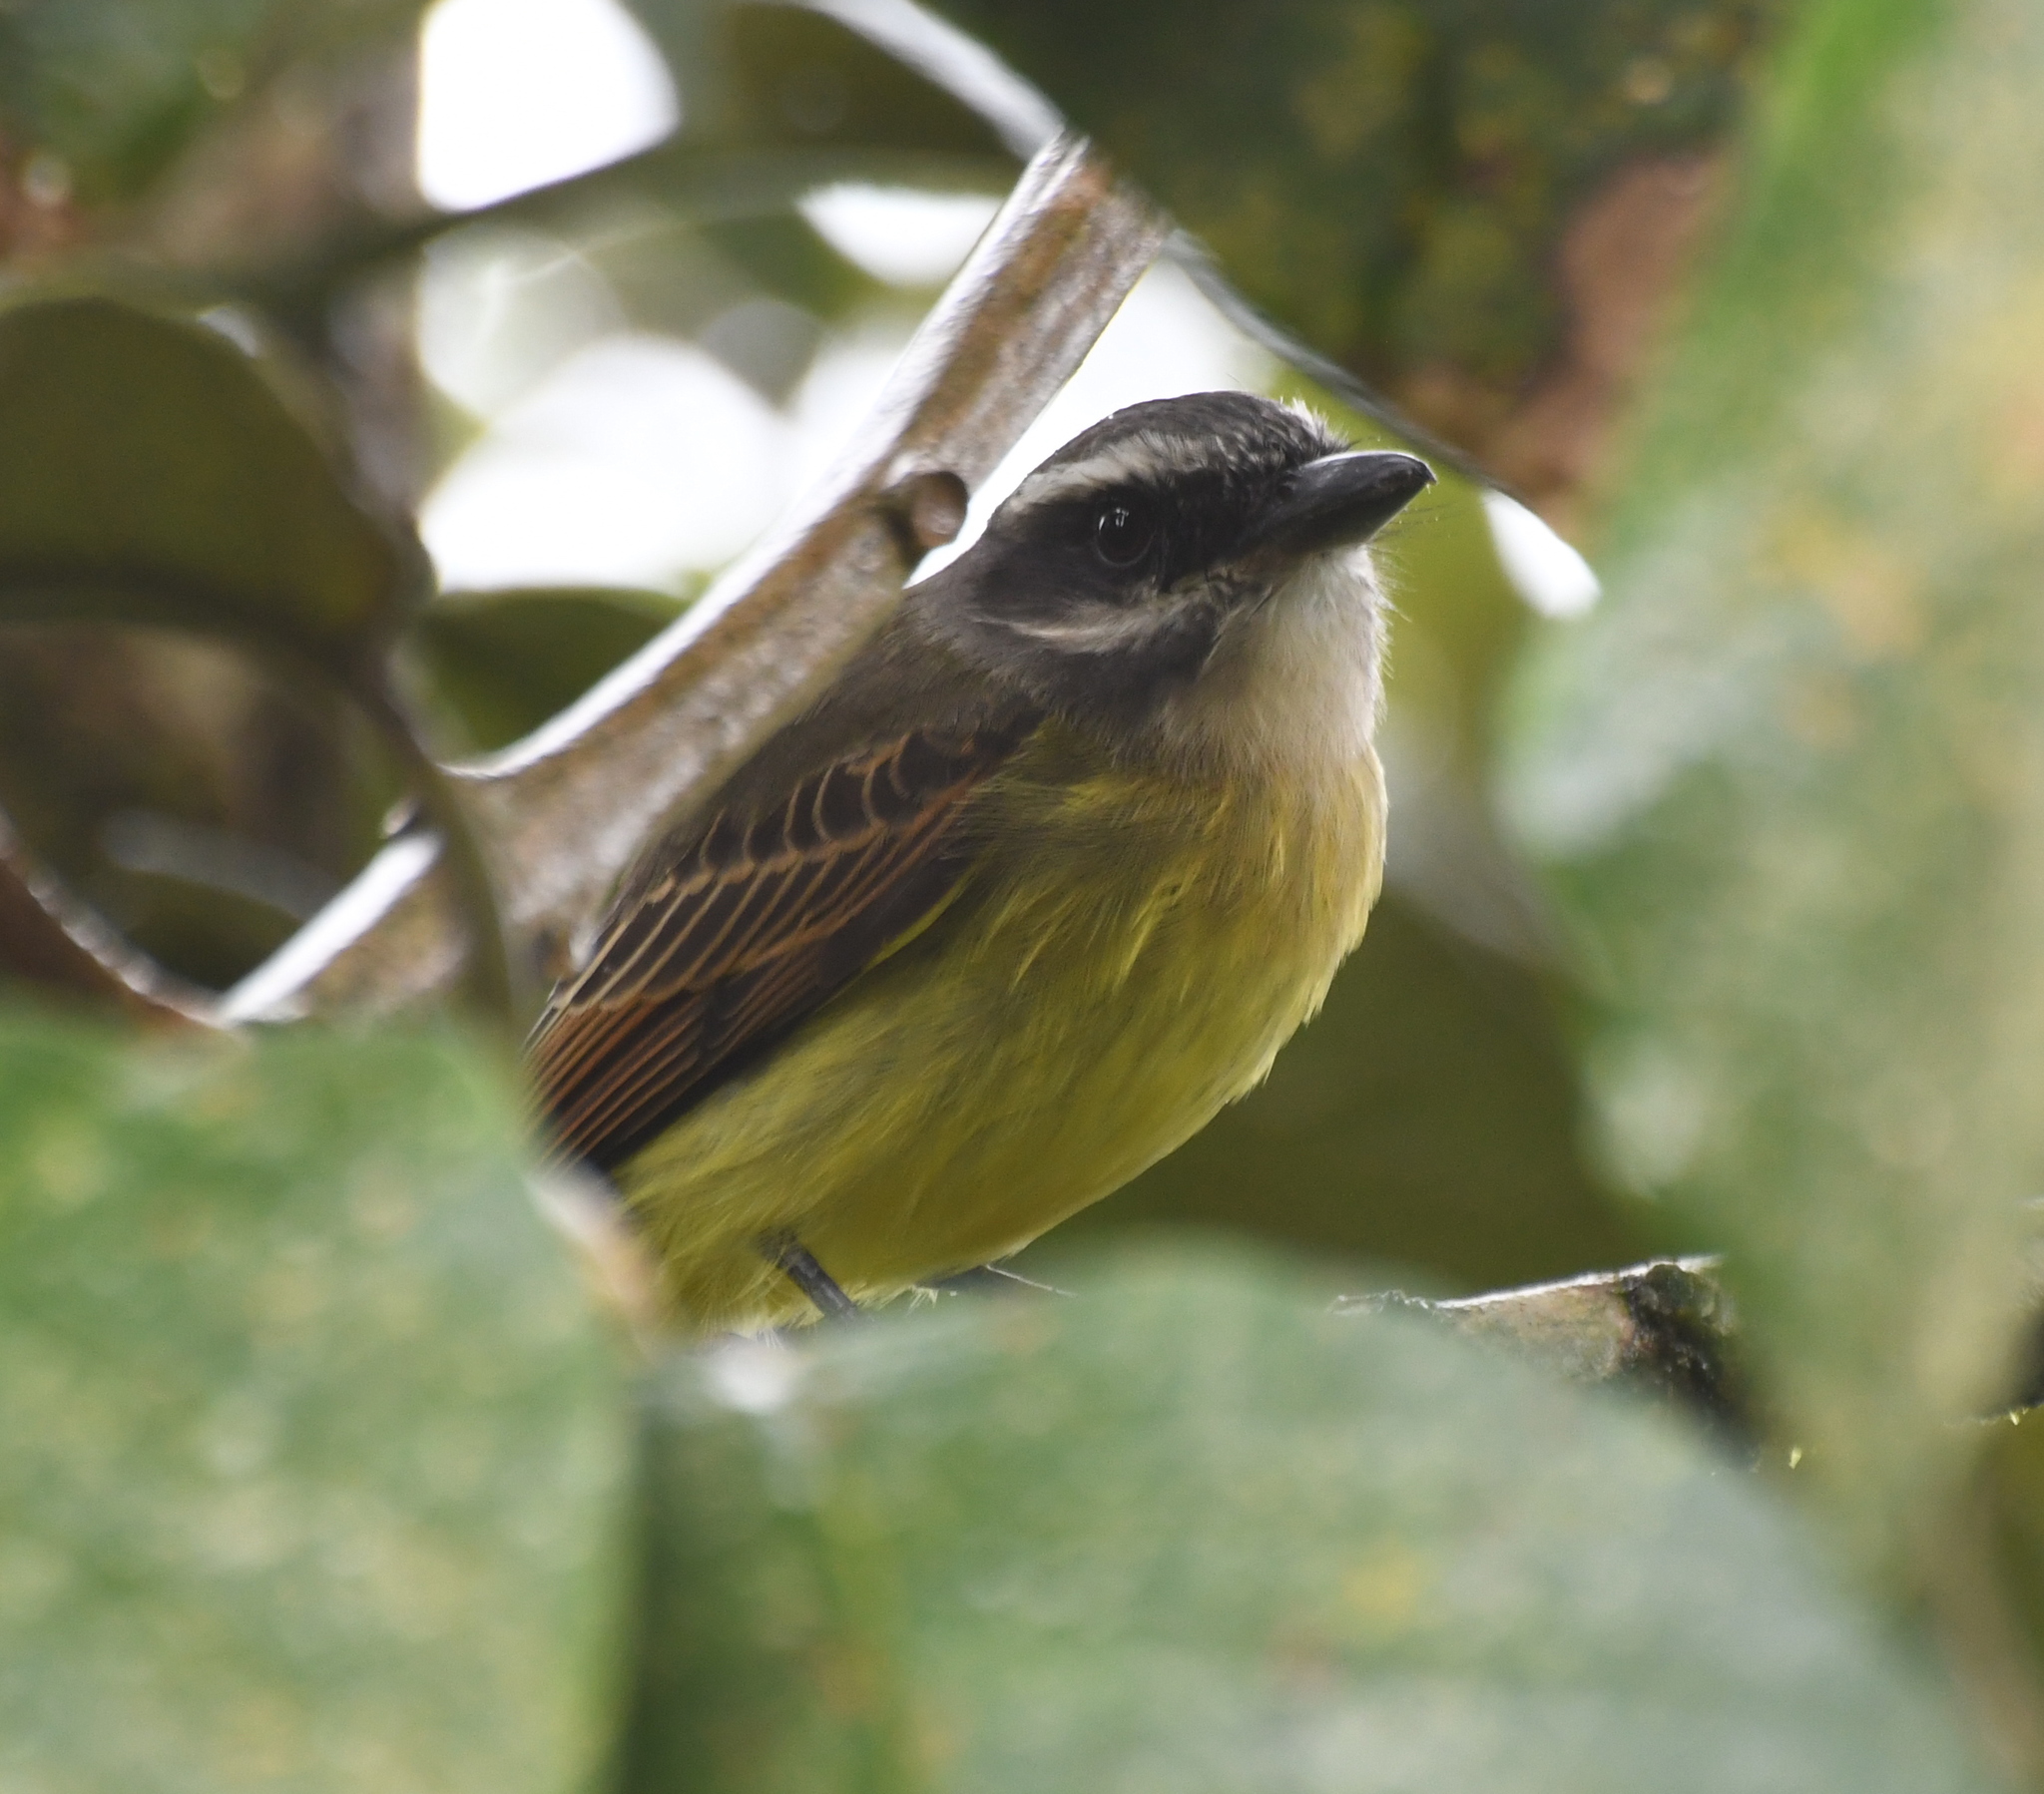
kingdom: Animalia
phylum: Chordata
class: Aves
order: Passeriformes
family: Tyrannidae
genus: Myiodynastes
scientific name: Myiodynastes hemichrysus
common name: Golden-bellied flycatcher
